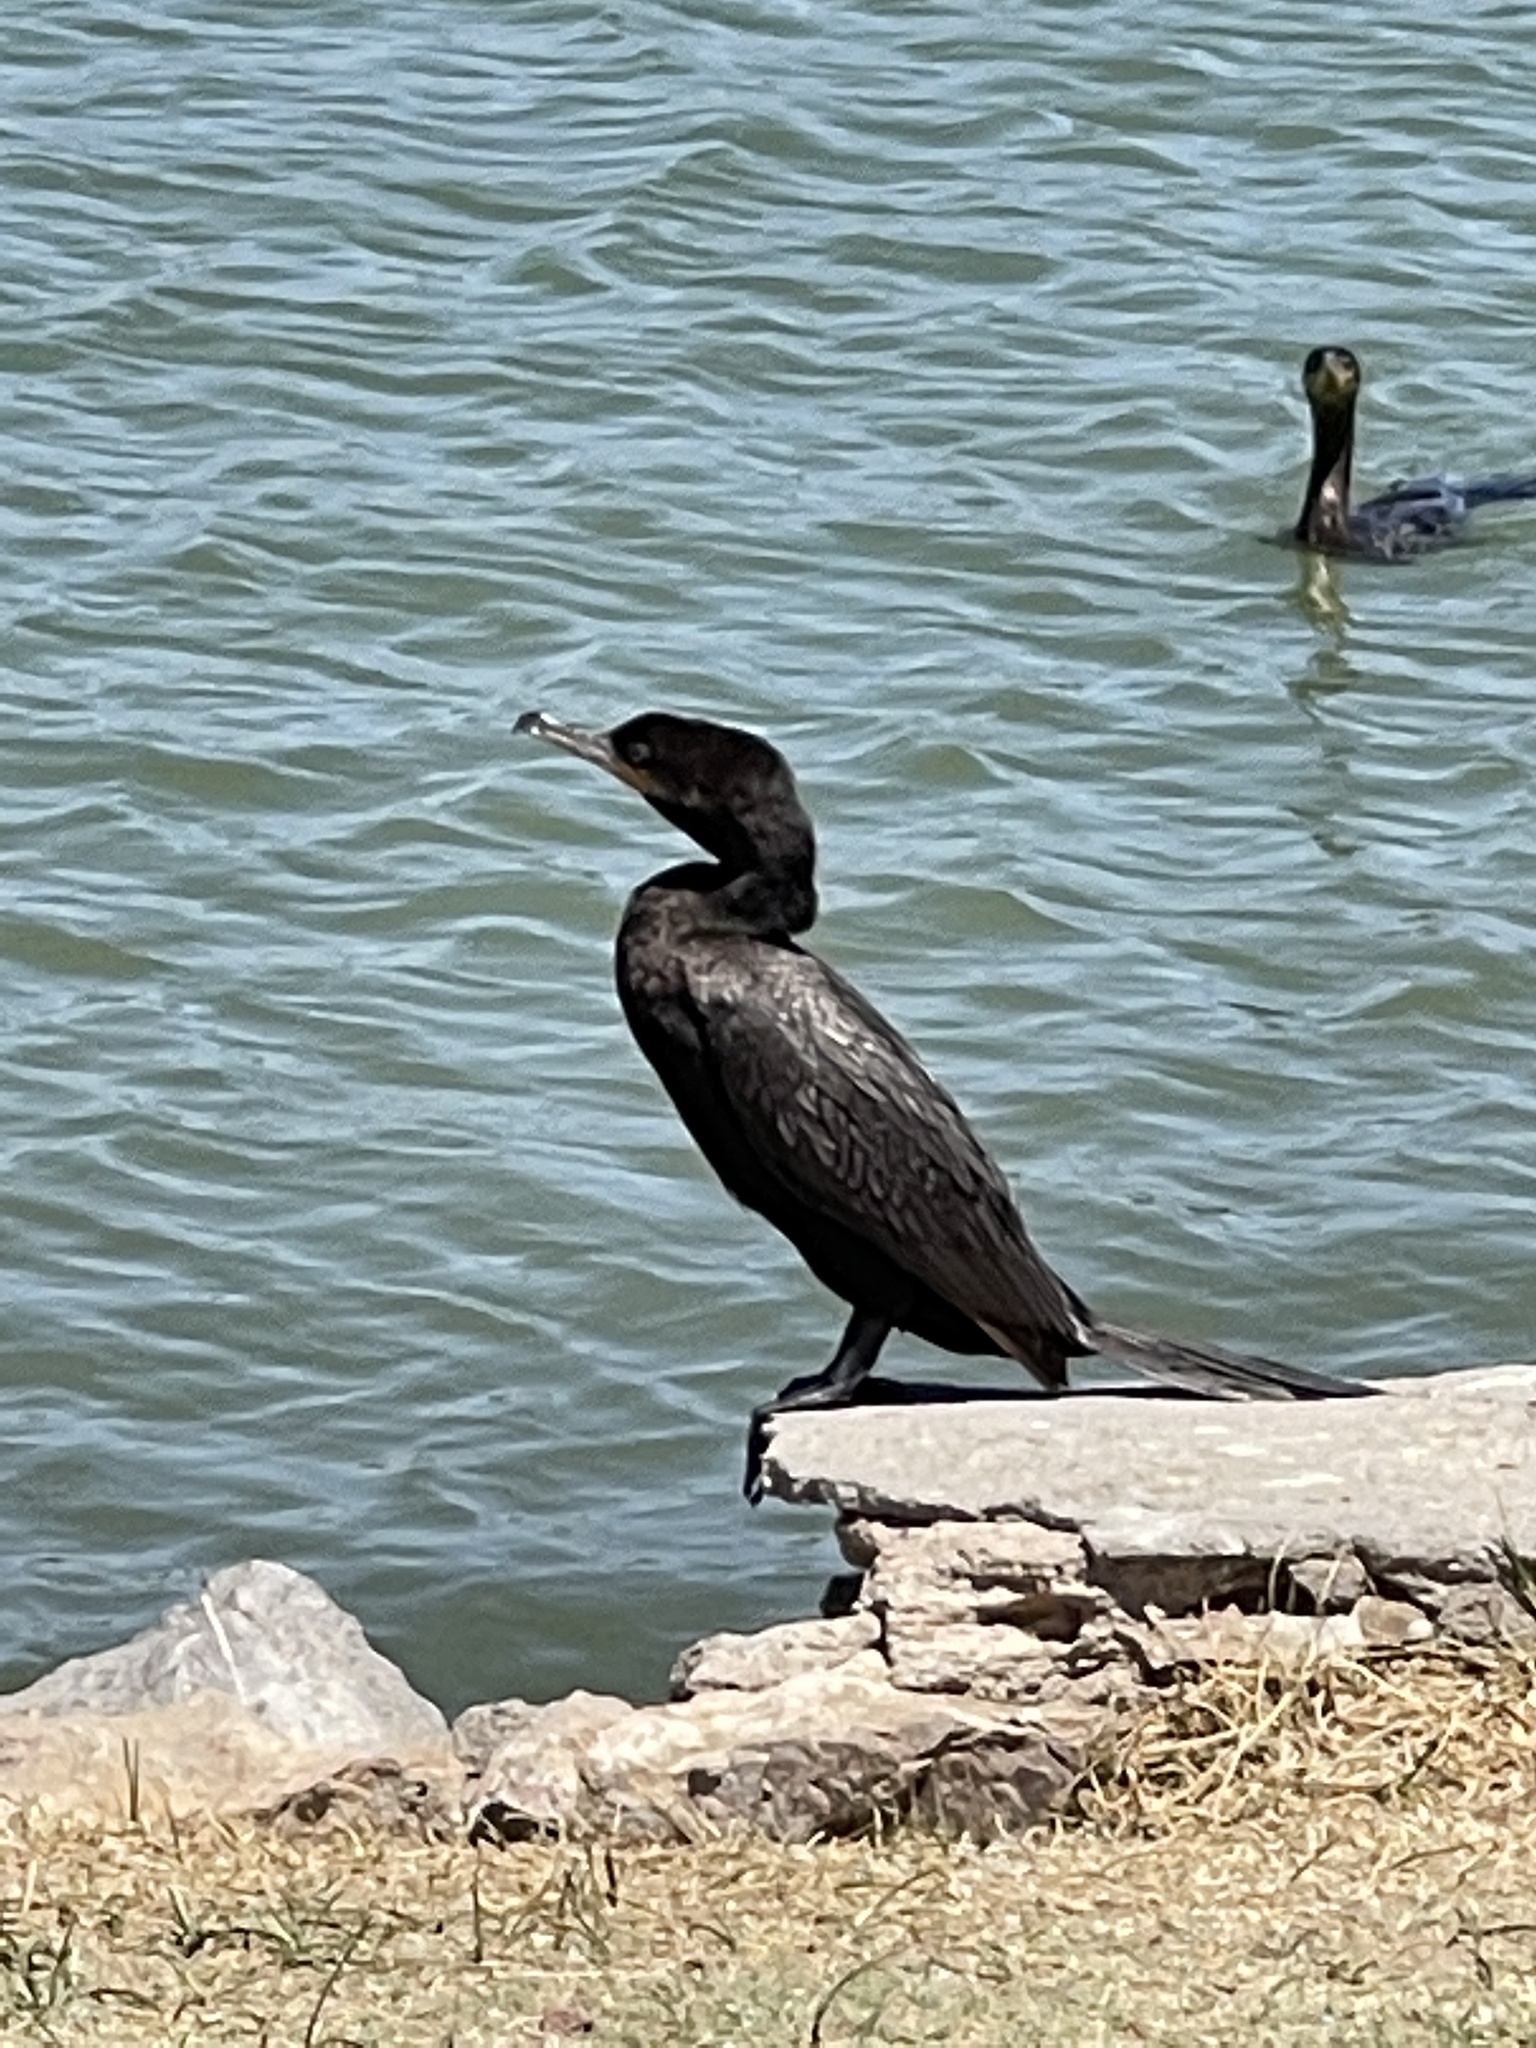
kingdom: Animalia
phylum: Chordata
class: Aves
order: Suliformes
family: Phalacrocoracidae
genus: Phalacrocorax
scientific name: Phalacrocorax brasilianus
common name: Neotropic cormorant
